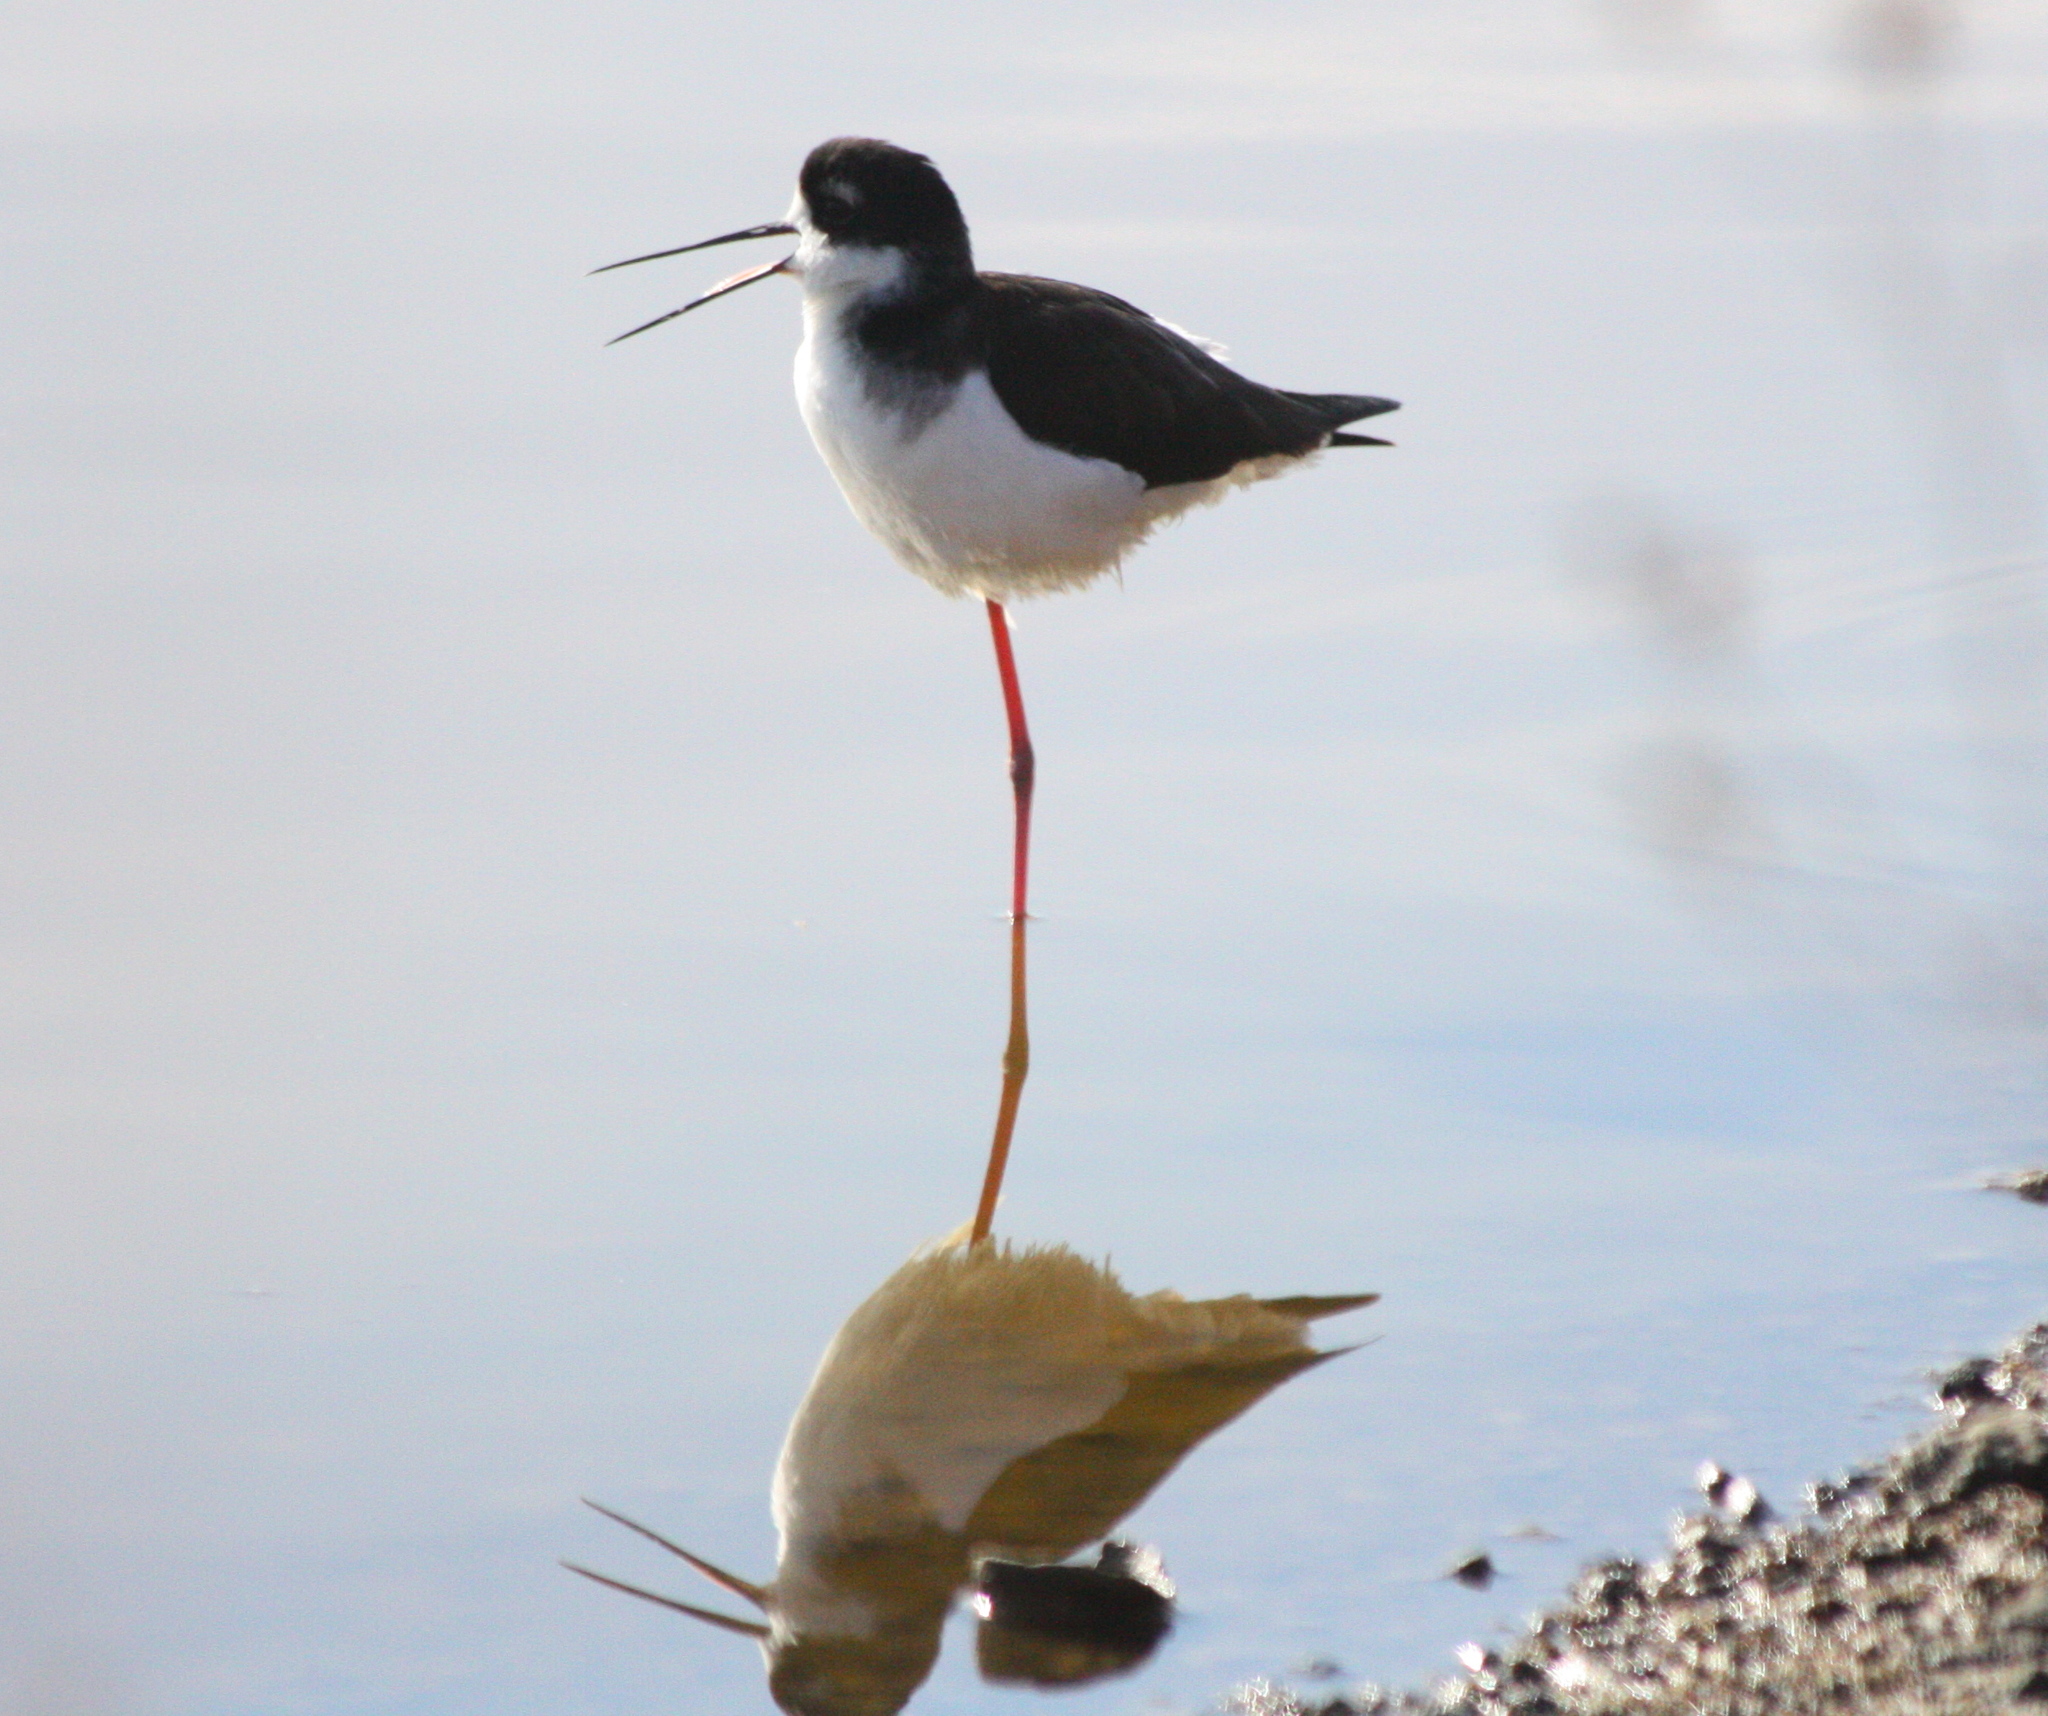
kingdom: Animalia
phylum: Chordata
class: Aves
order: Charadriiformes
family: Recurvirostridae
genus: Himantopus
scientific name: Himantopus mexicanus
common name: Black-necked stilt
